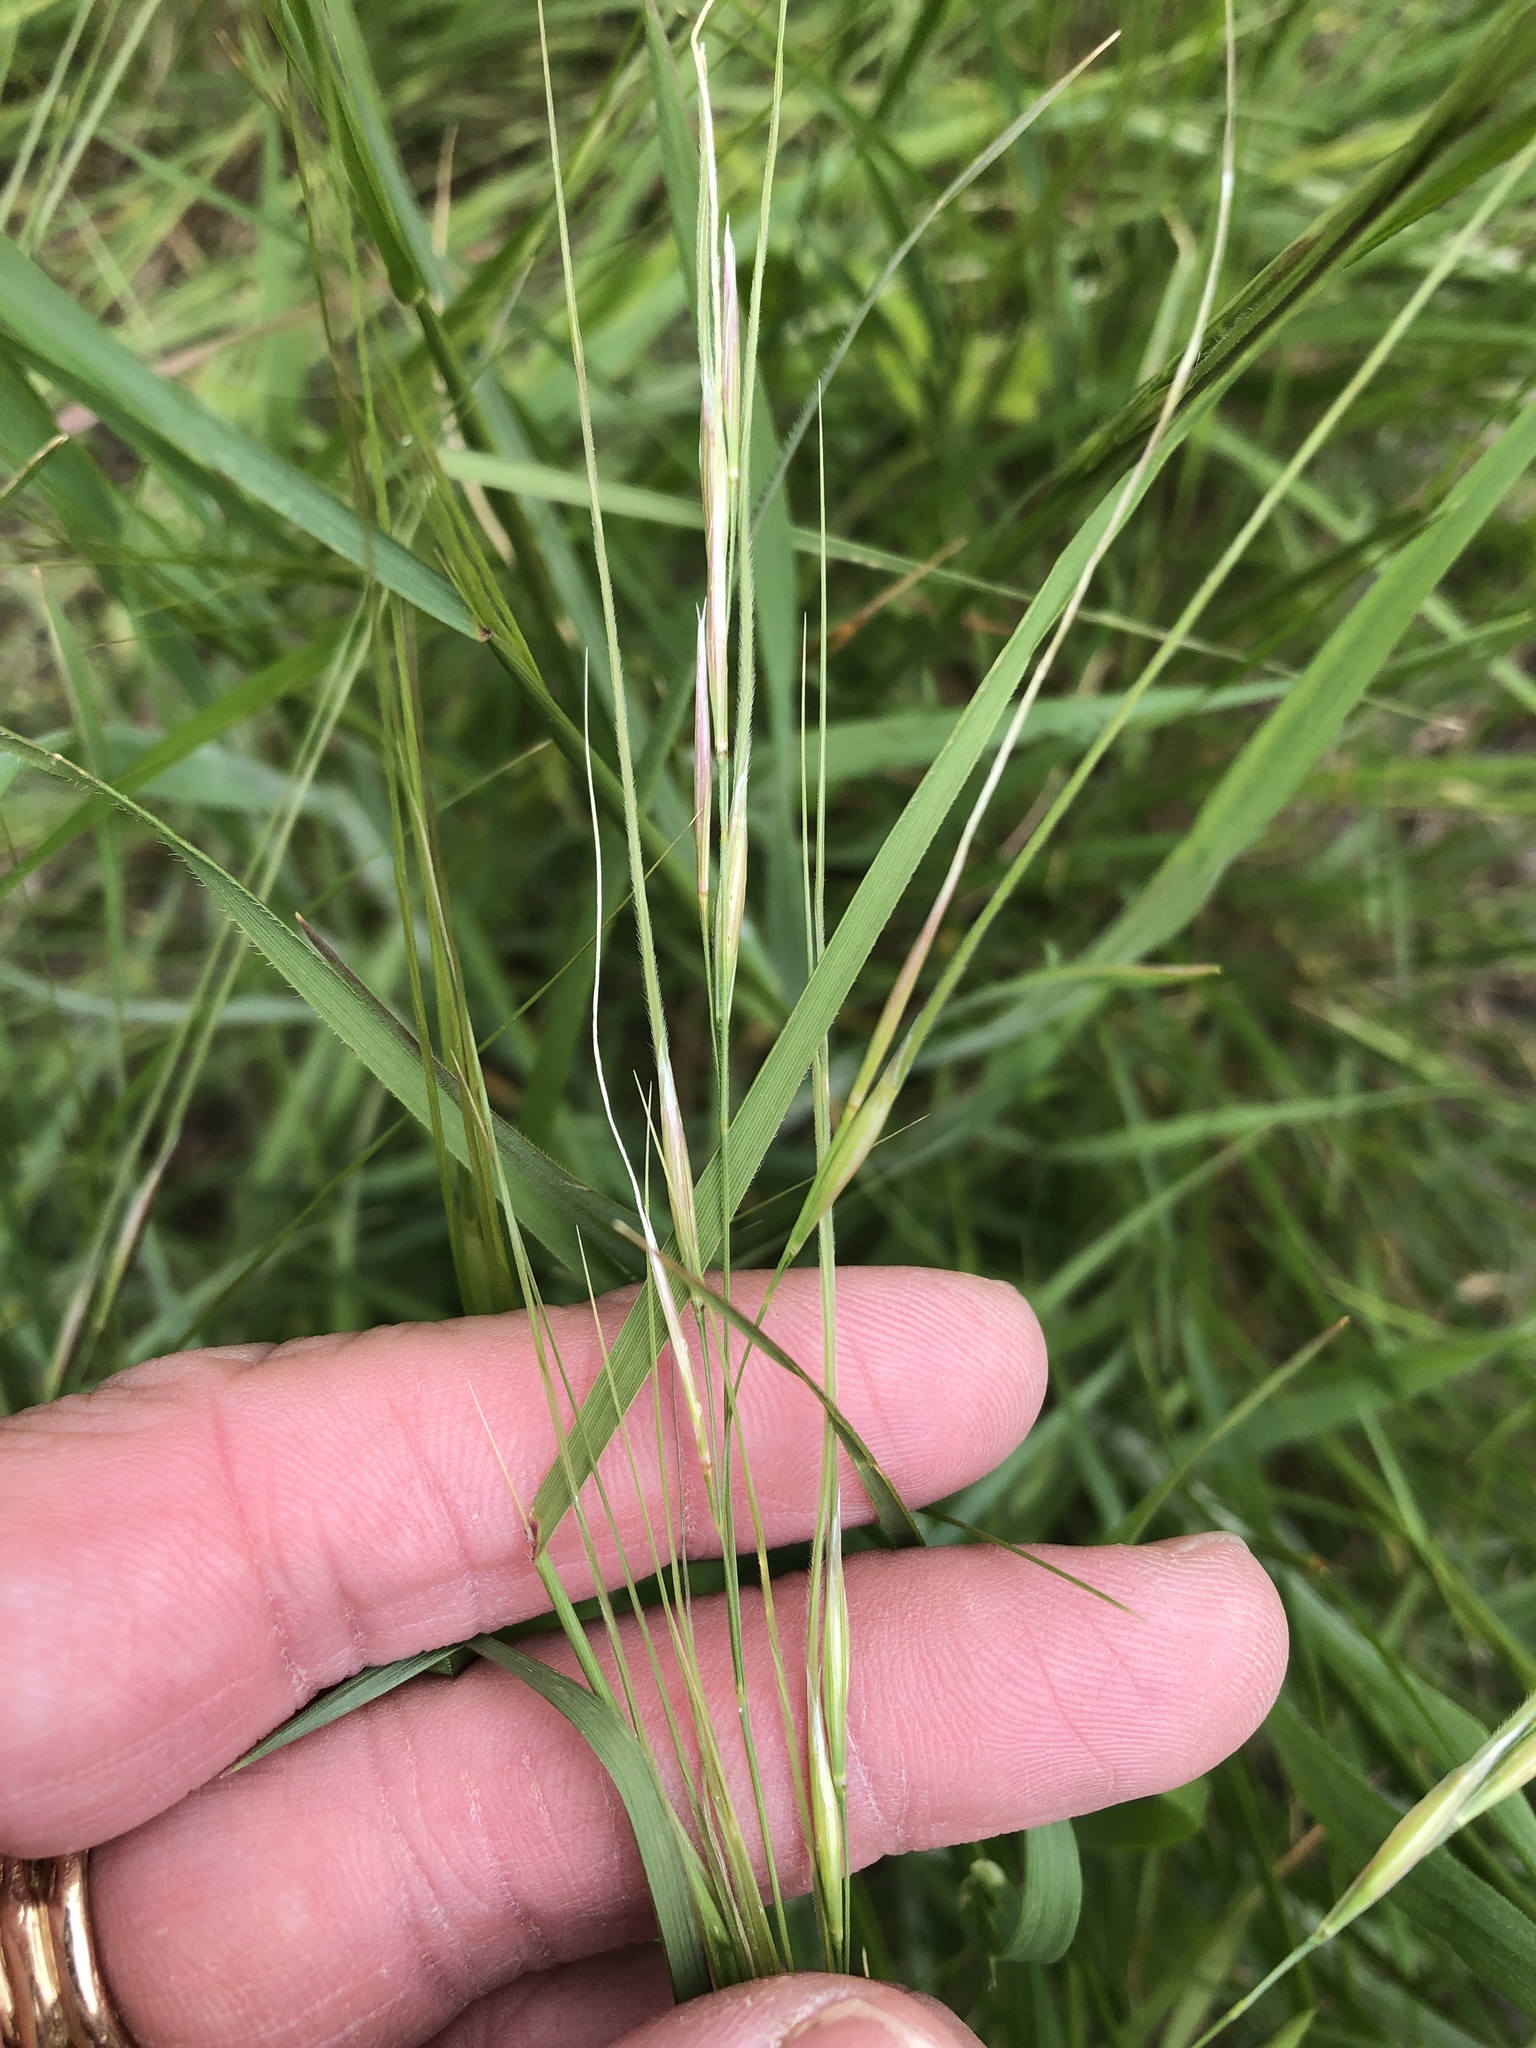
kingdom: Plantae
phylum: Tracheophyta
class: Liliopsida
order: Poales
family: Poaceae
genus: Nassella
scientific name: Nassella leucotricha
